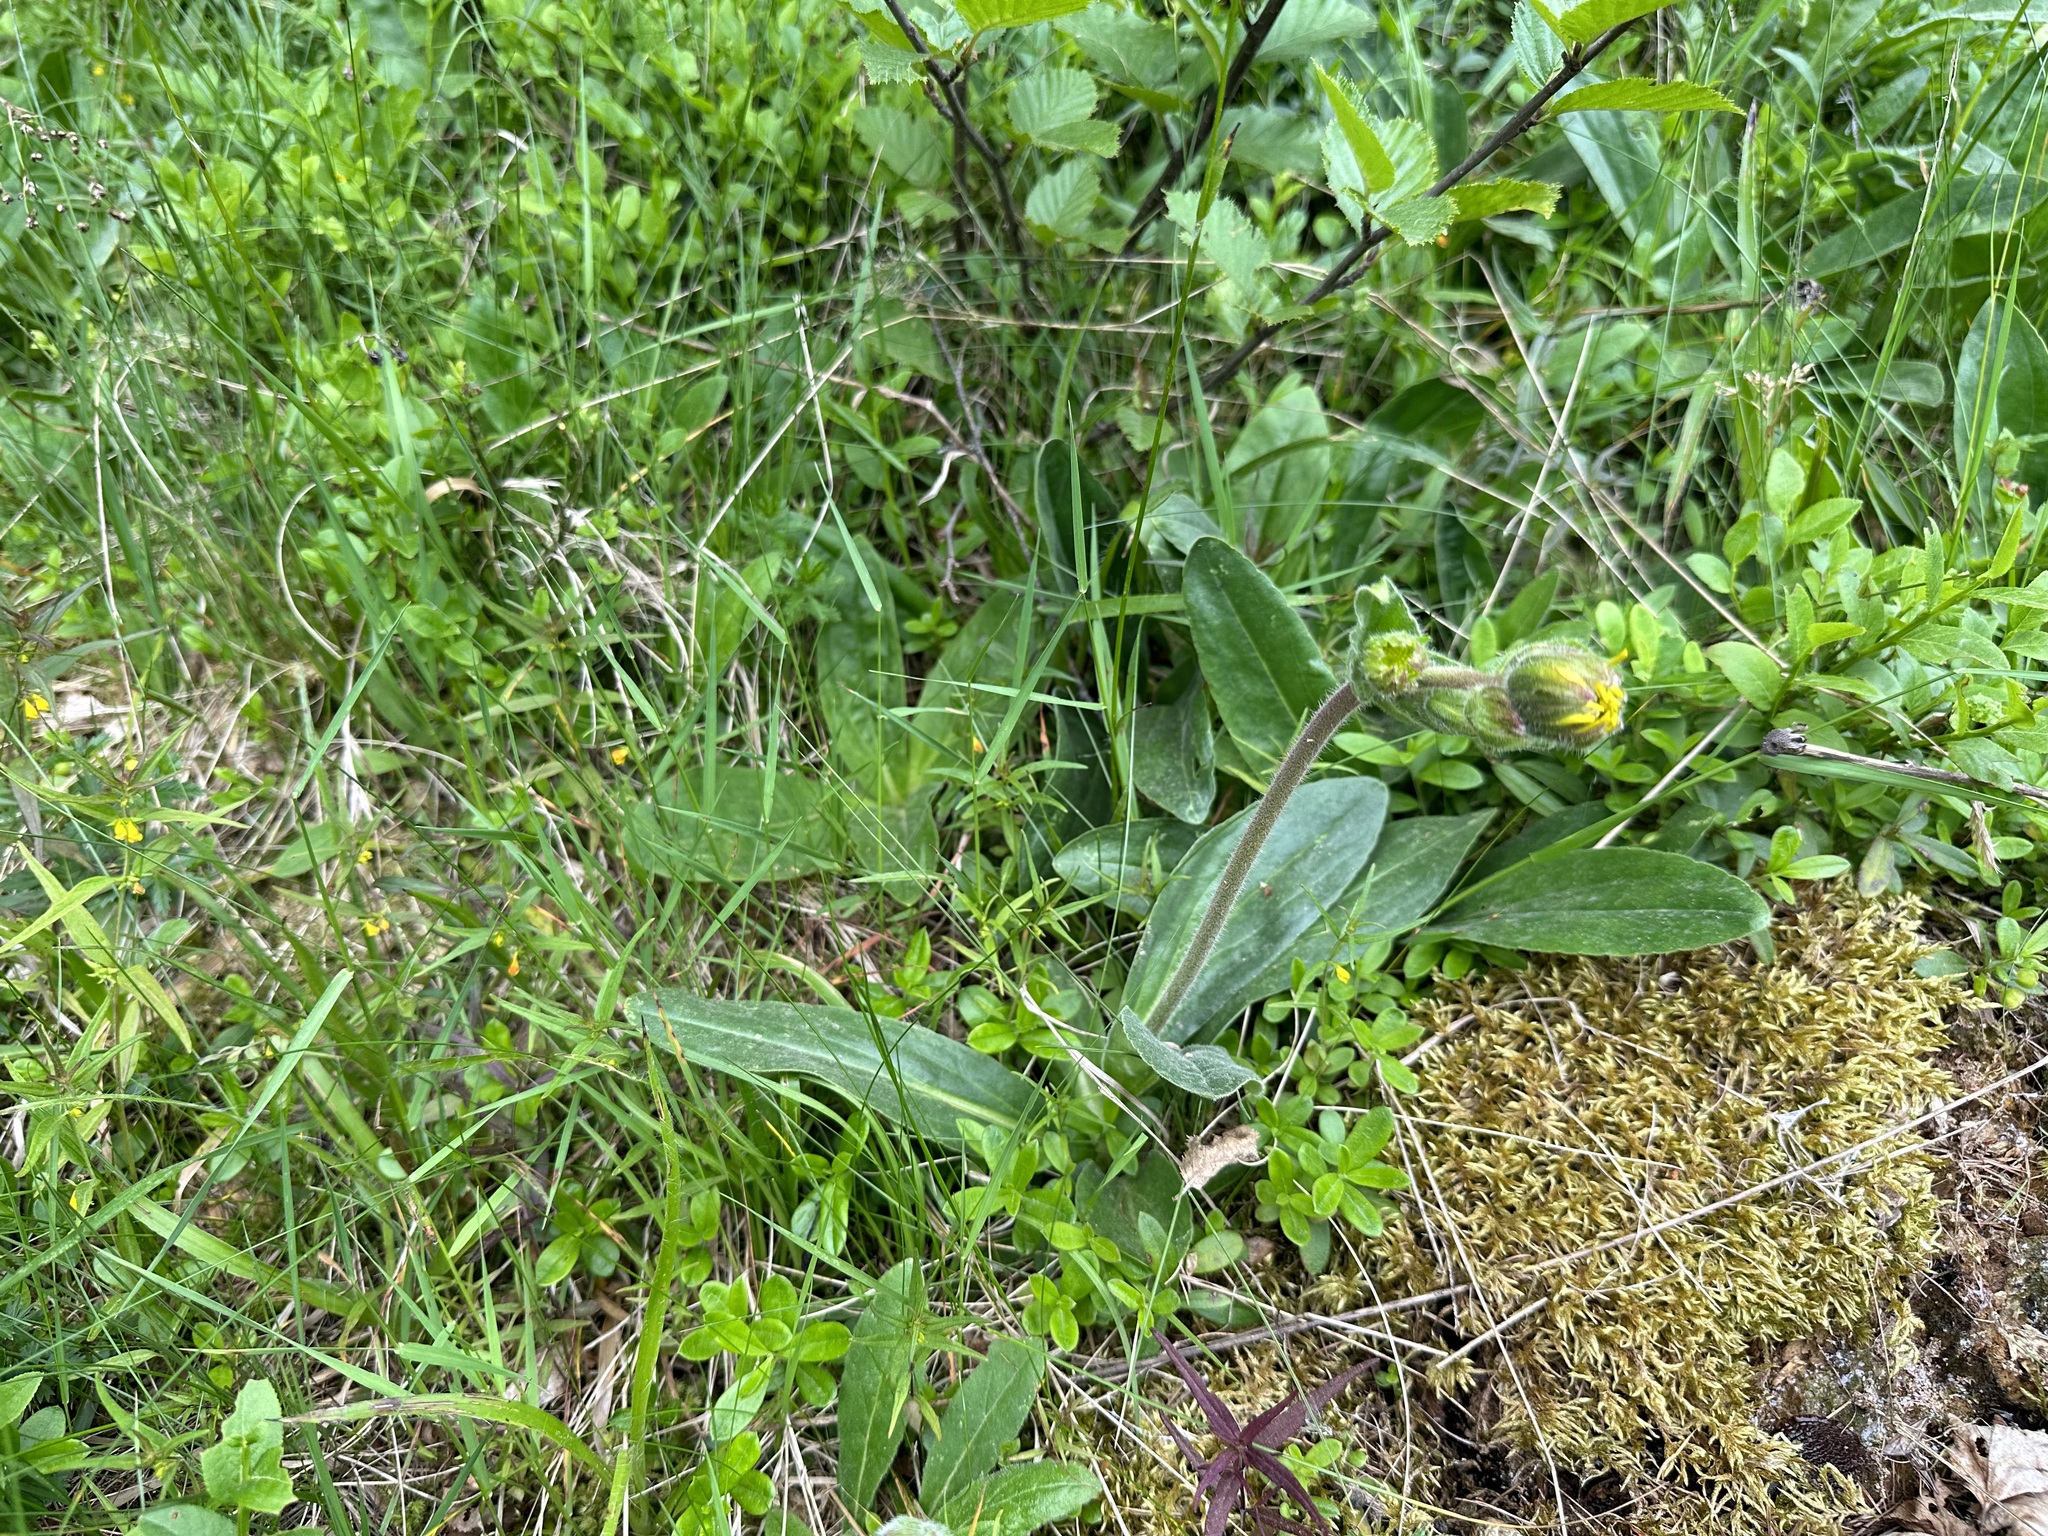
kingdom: Plantae
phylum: Tracheophyta
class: Magnoliopsida
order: Asterales
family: Asteraceae
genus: Arnica
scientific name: Arnica montana
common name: Leopard's bane
